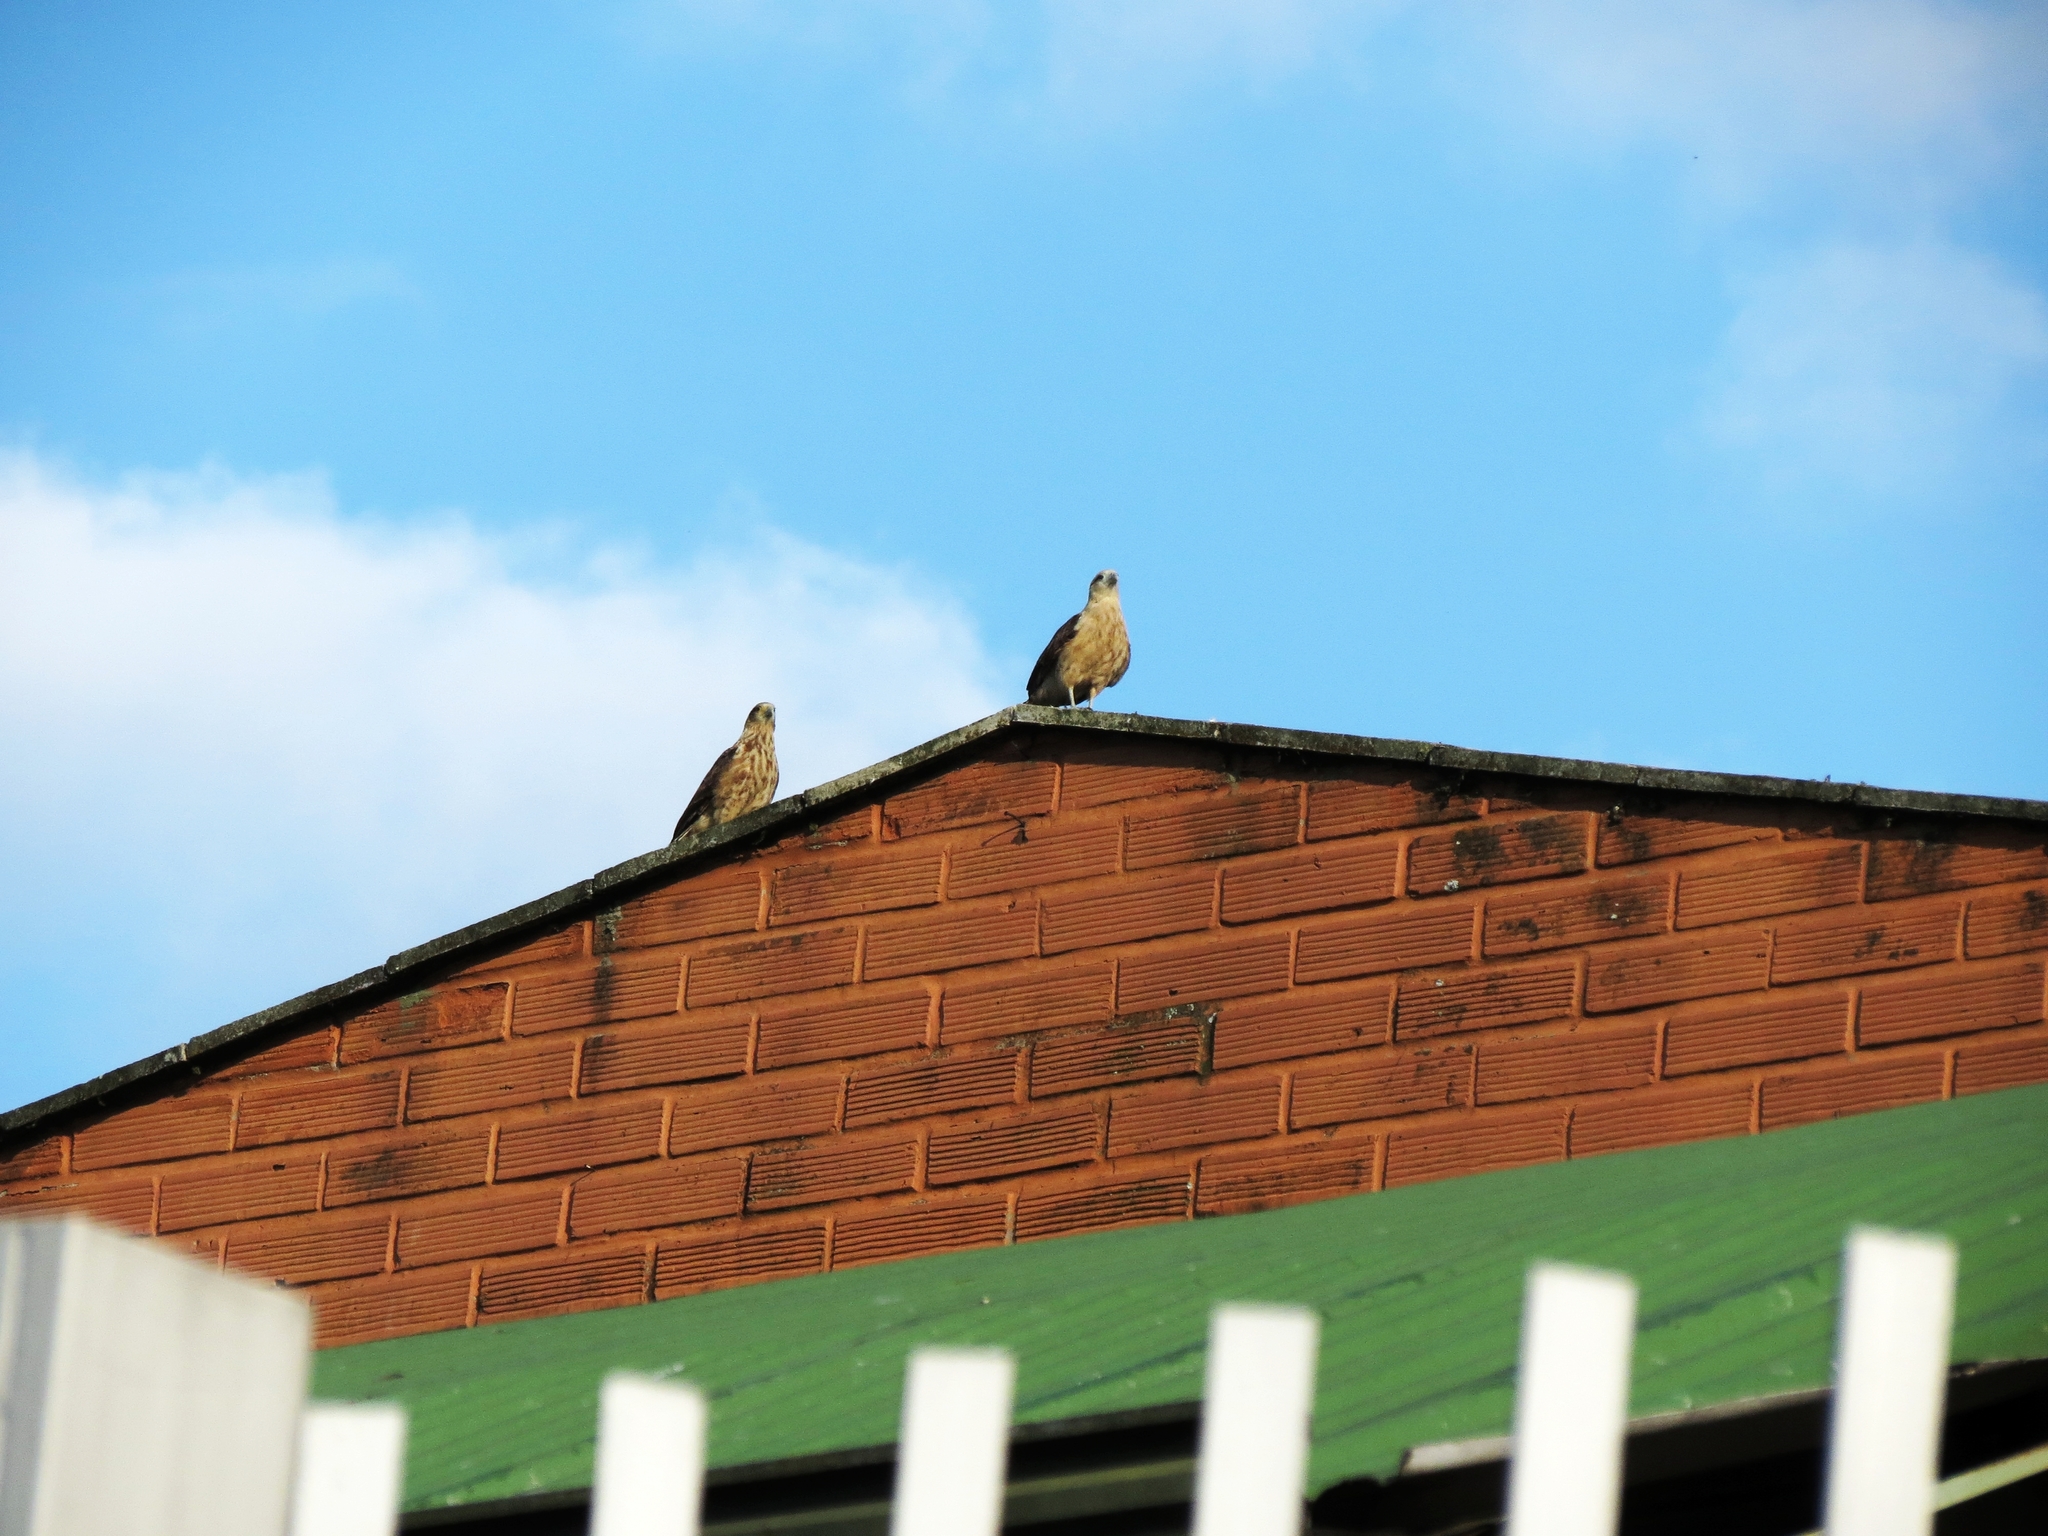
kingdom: Animalia
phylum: Chordata
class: Aves
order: Falconiformes
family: Falconidae
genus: Daptrius
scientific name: Daptrius
